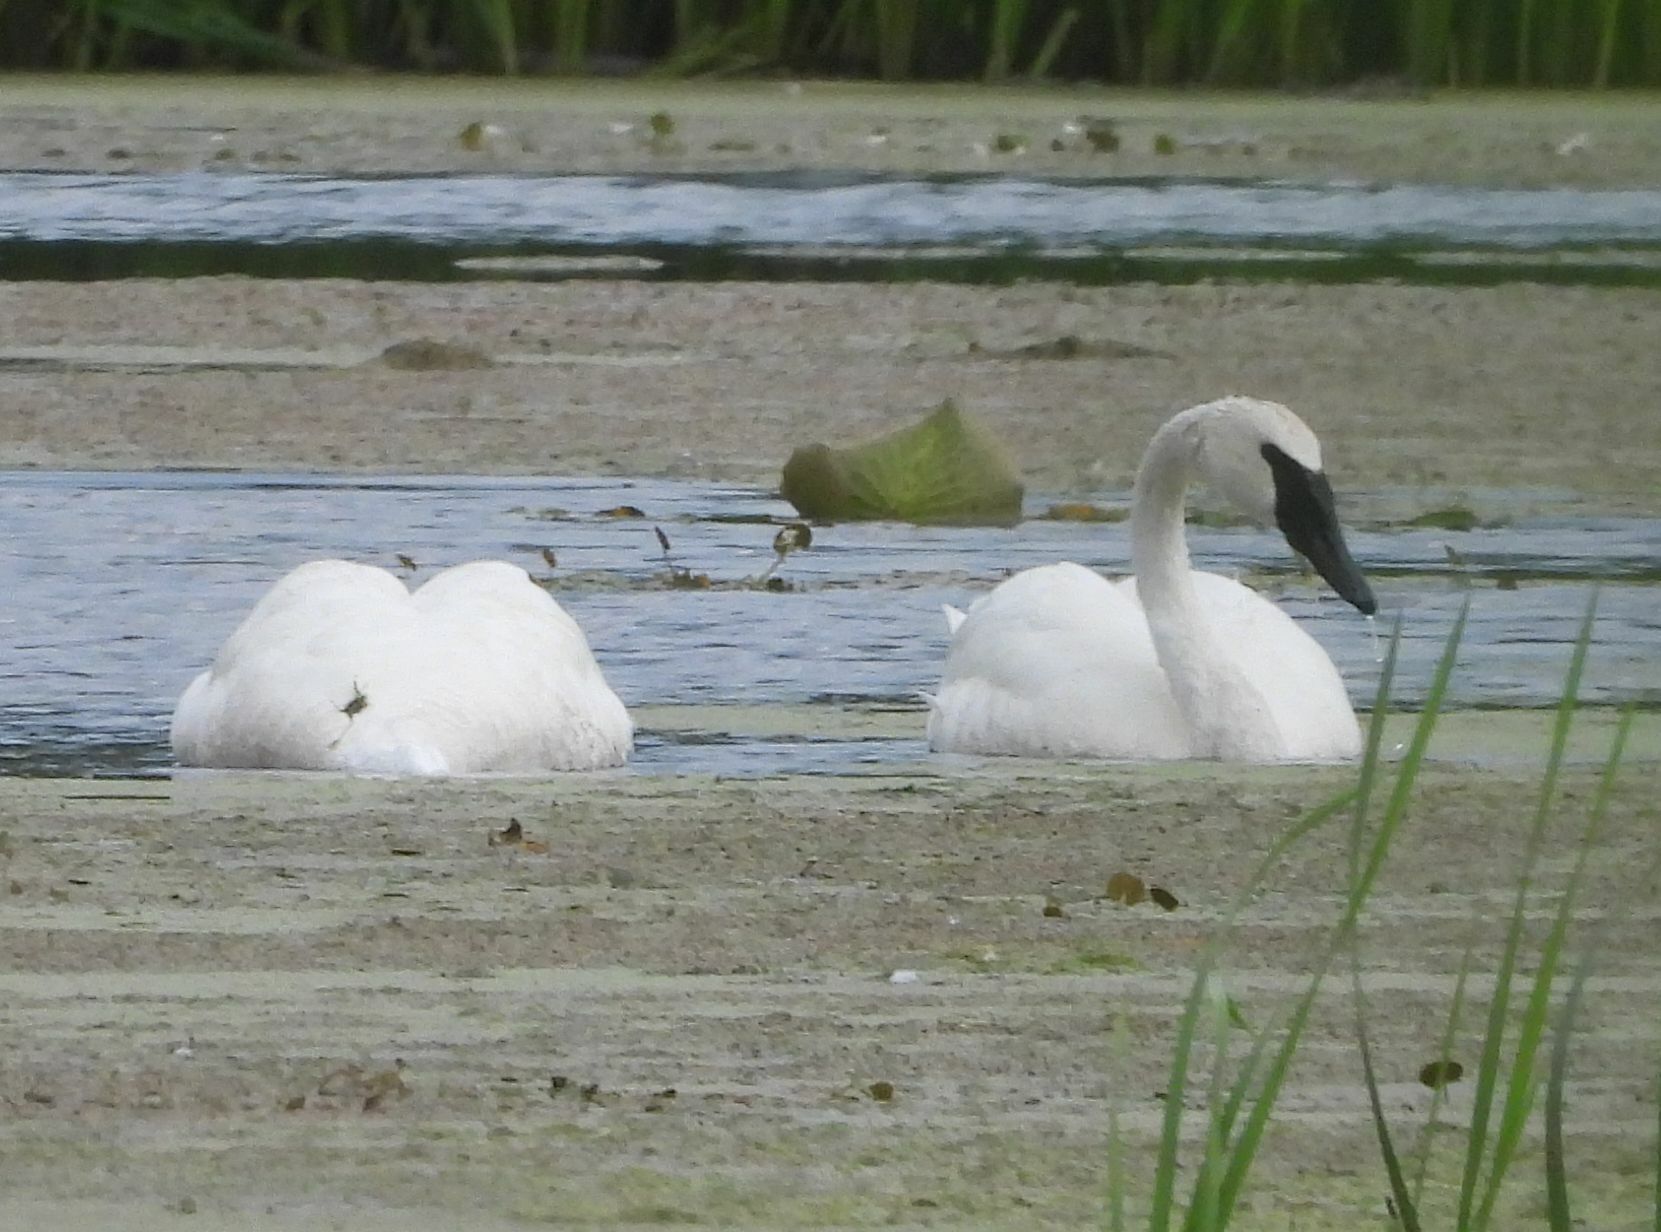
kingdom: Animalia
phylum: Chordata
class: Aves
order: Anseriformes
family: Anatidae
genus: Cygnus
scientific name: Cygnus buccinator
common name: Trumpeter swan
